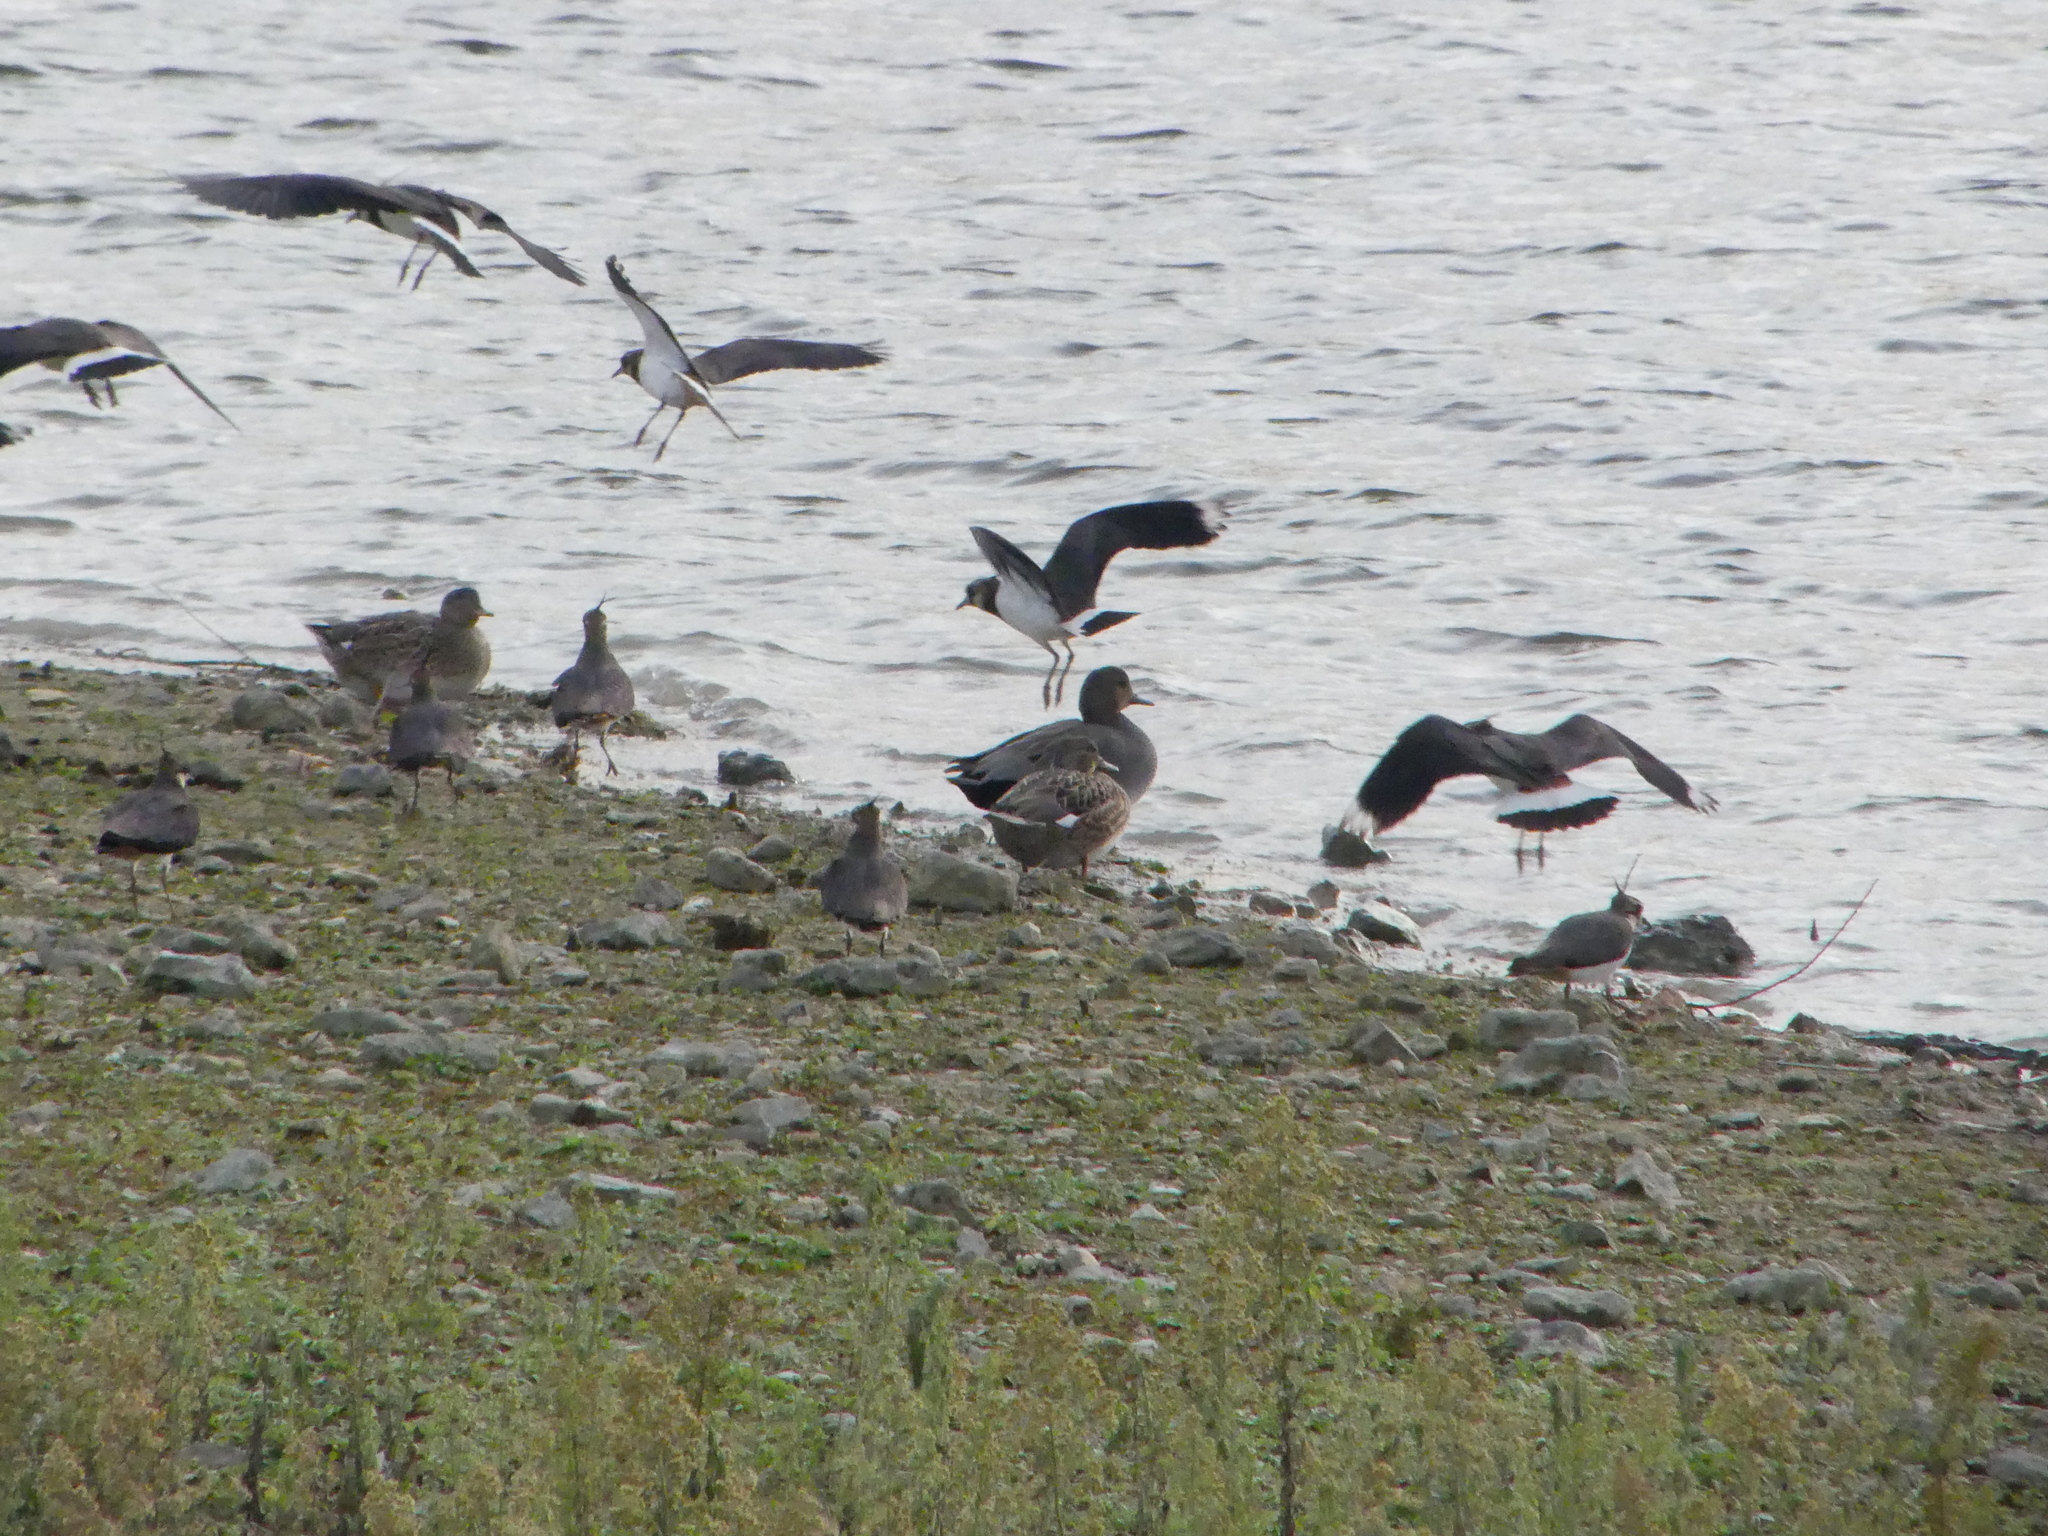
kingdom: Animalia
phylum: Chordata
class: Aves
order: Anseriformes
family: Anatidae
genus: Mareca
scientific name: Mareca strepera
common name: Gadwall
